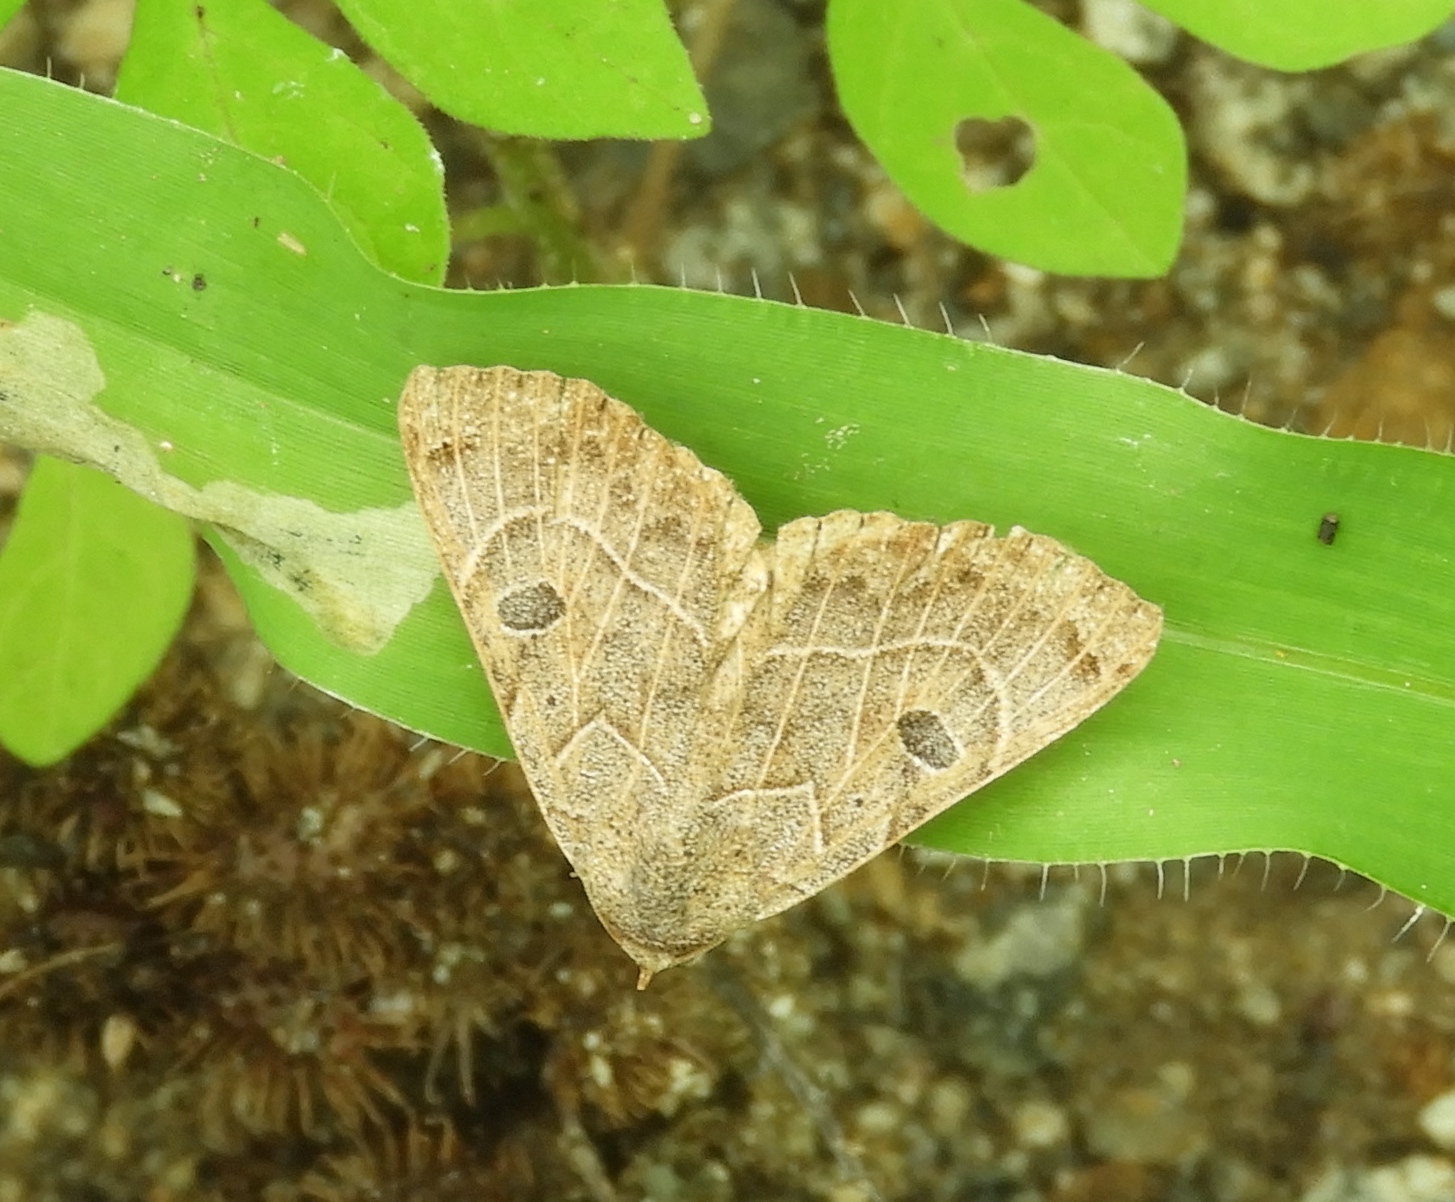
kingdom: Animalia
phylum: Arthropoda
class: Insecta
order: Lepidoptera
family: Erebidae
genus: Isogona
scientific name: Isogona scindens
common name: Owlet moth
